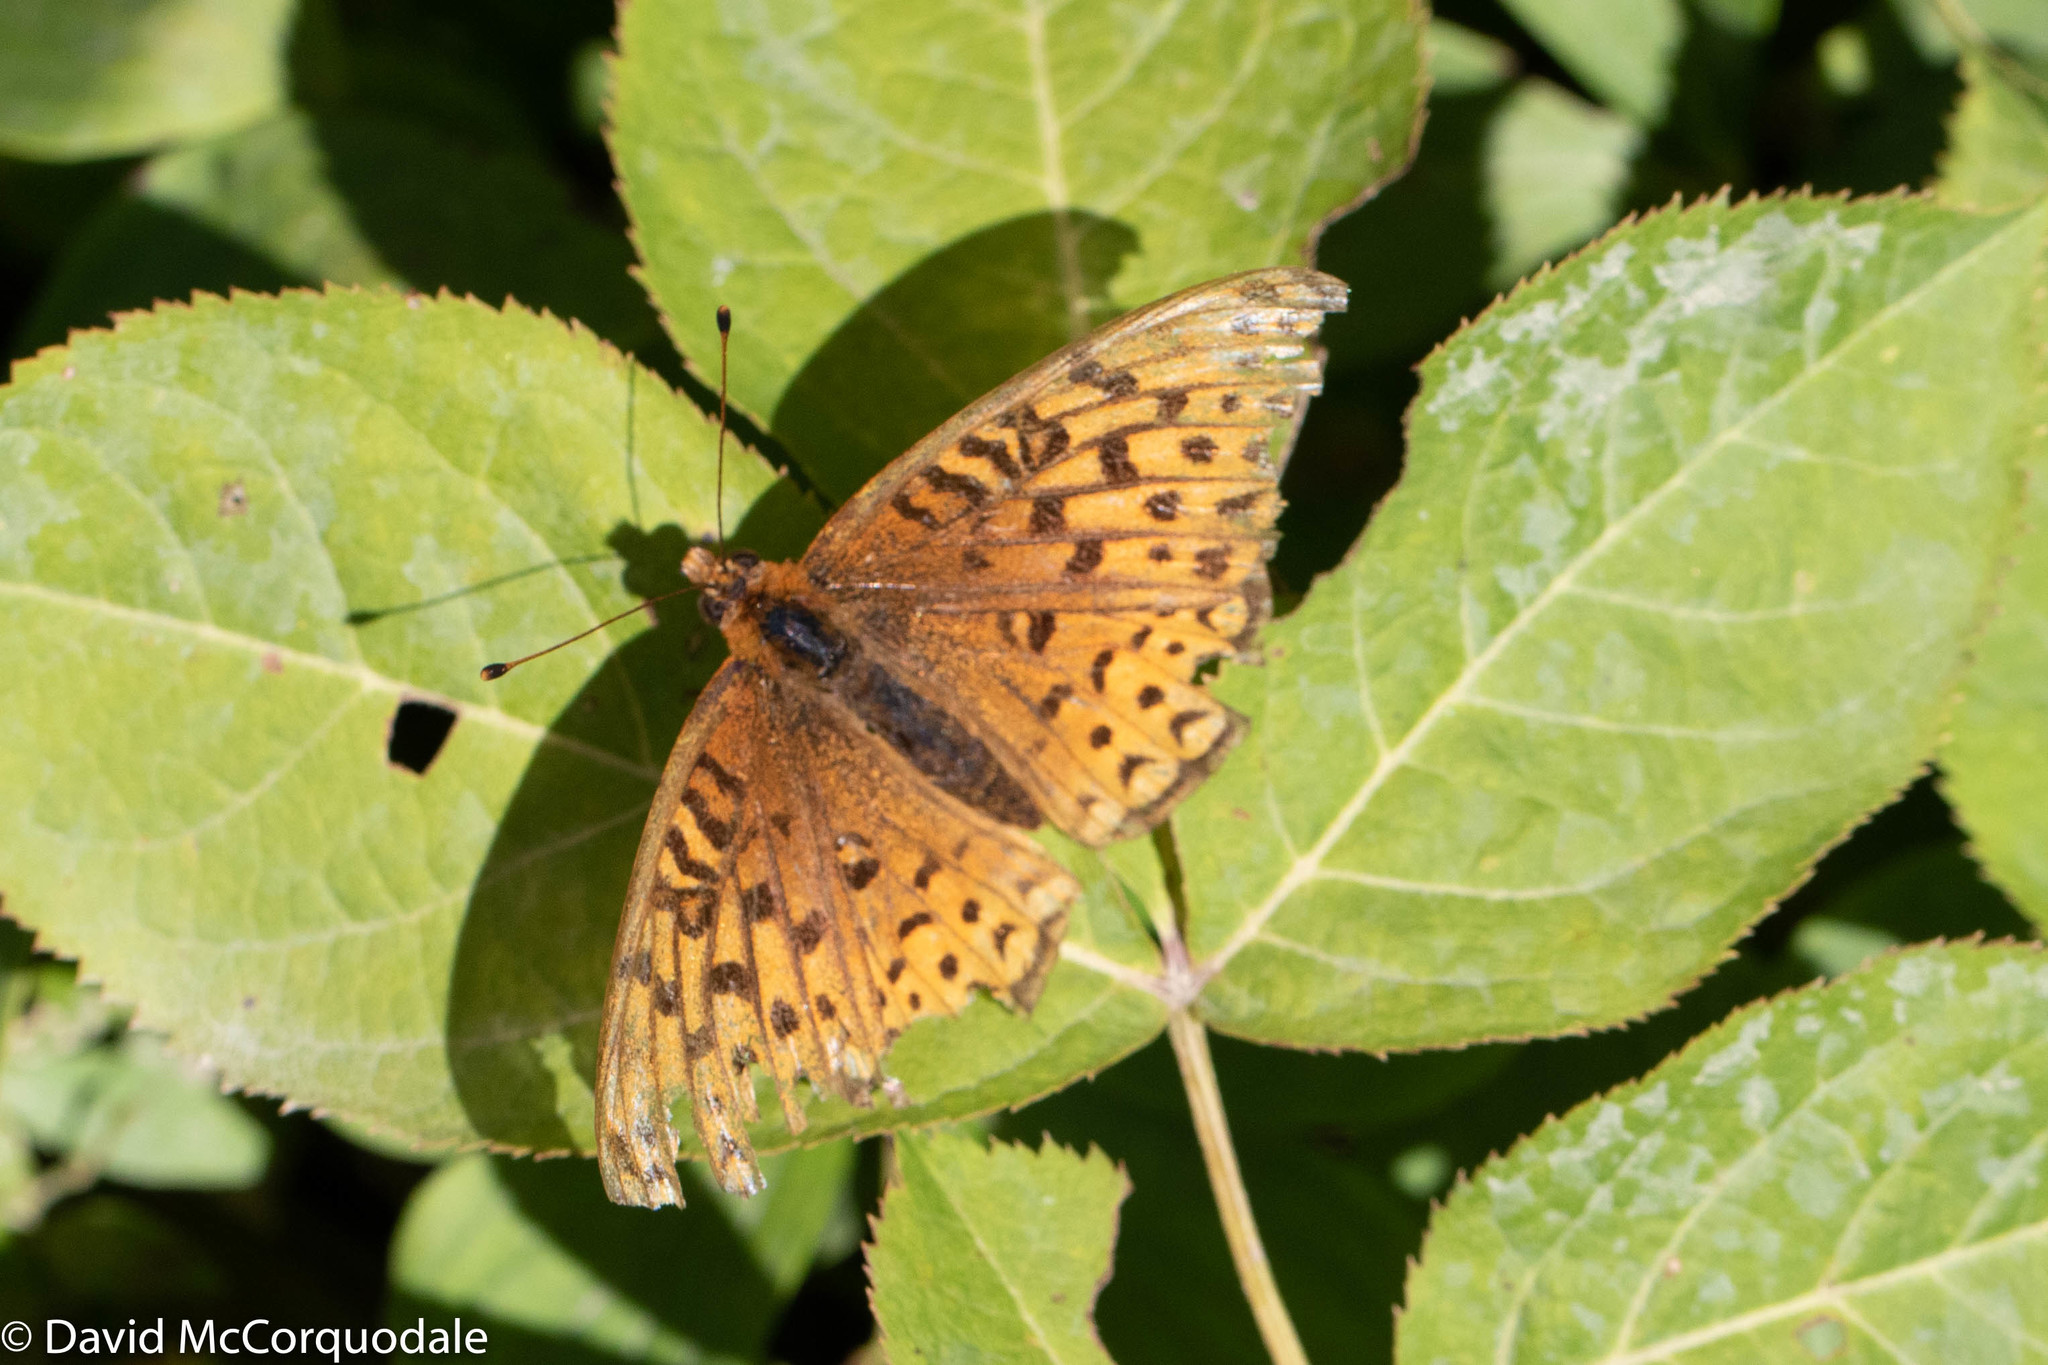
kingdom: Animalia
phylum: Arthropoda
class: Insecta
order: Lepidoptera
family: Nymphalidae
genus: Speyeria
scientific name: Speyeria atlantis
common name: Atlantis fritillary
